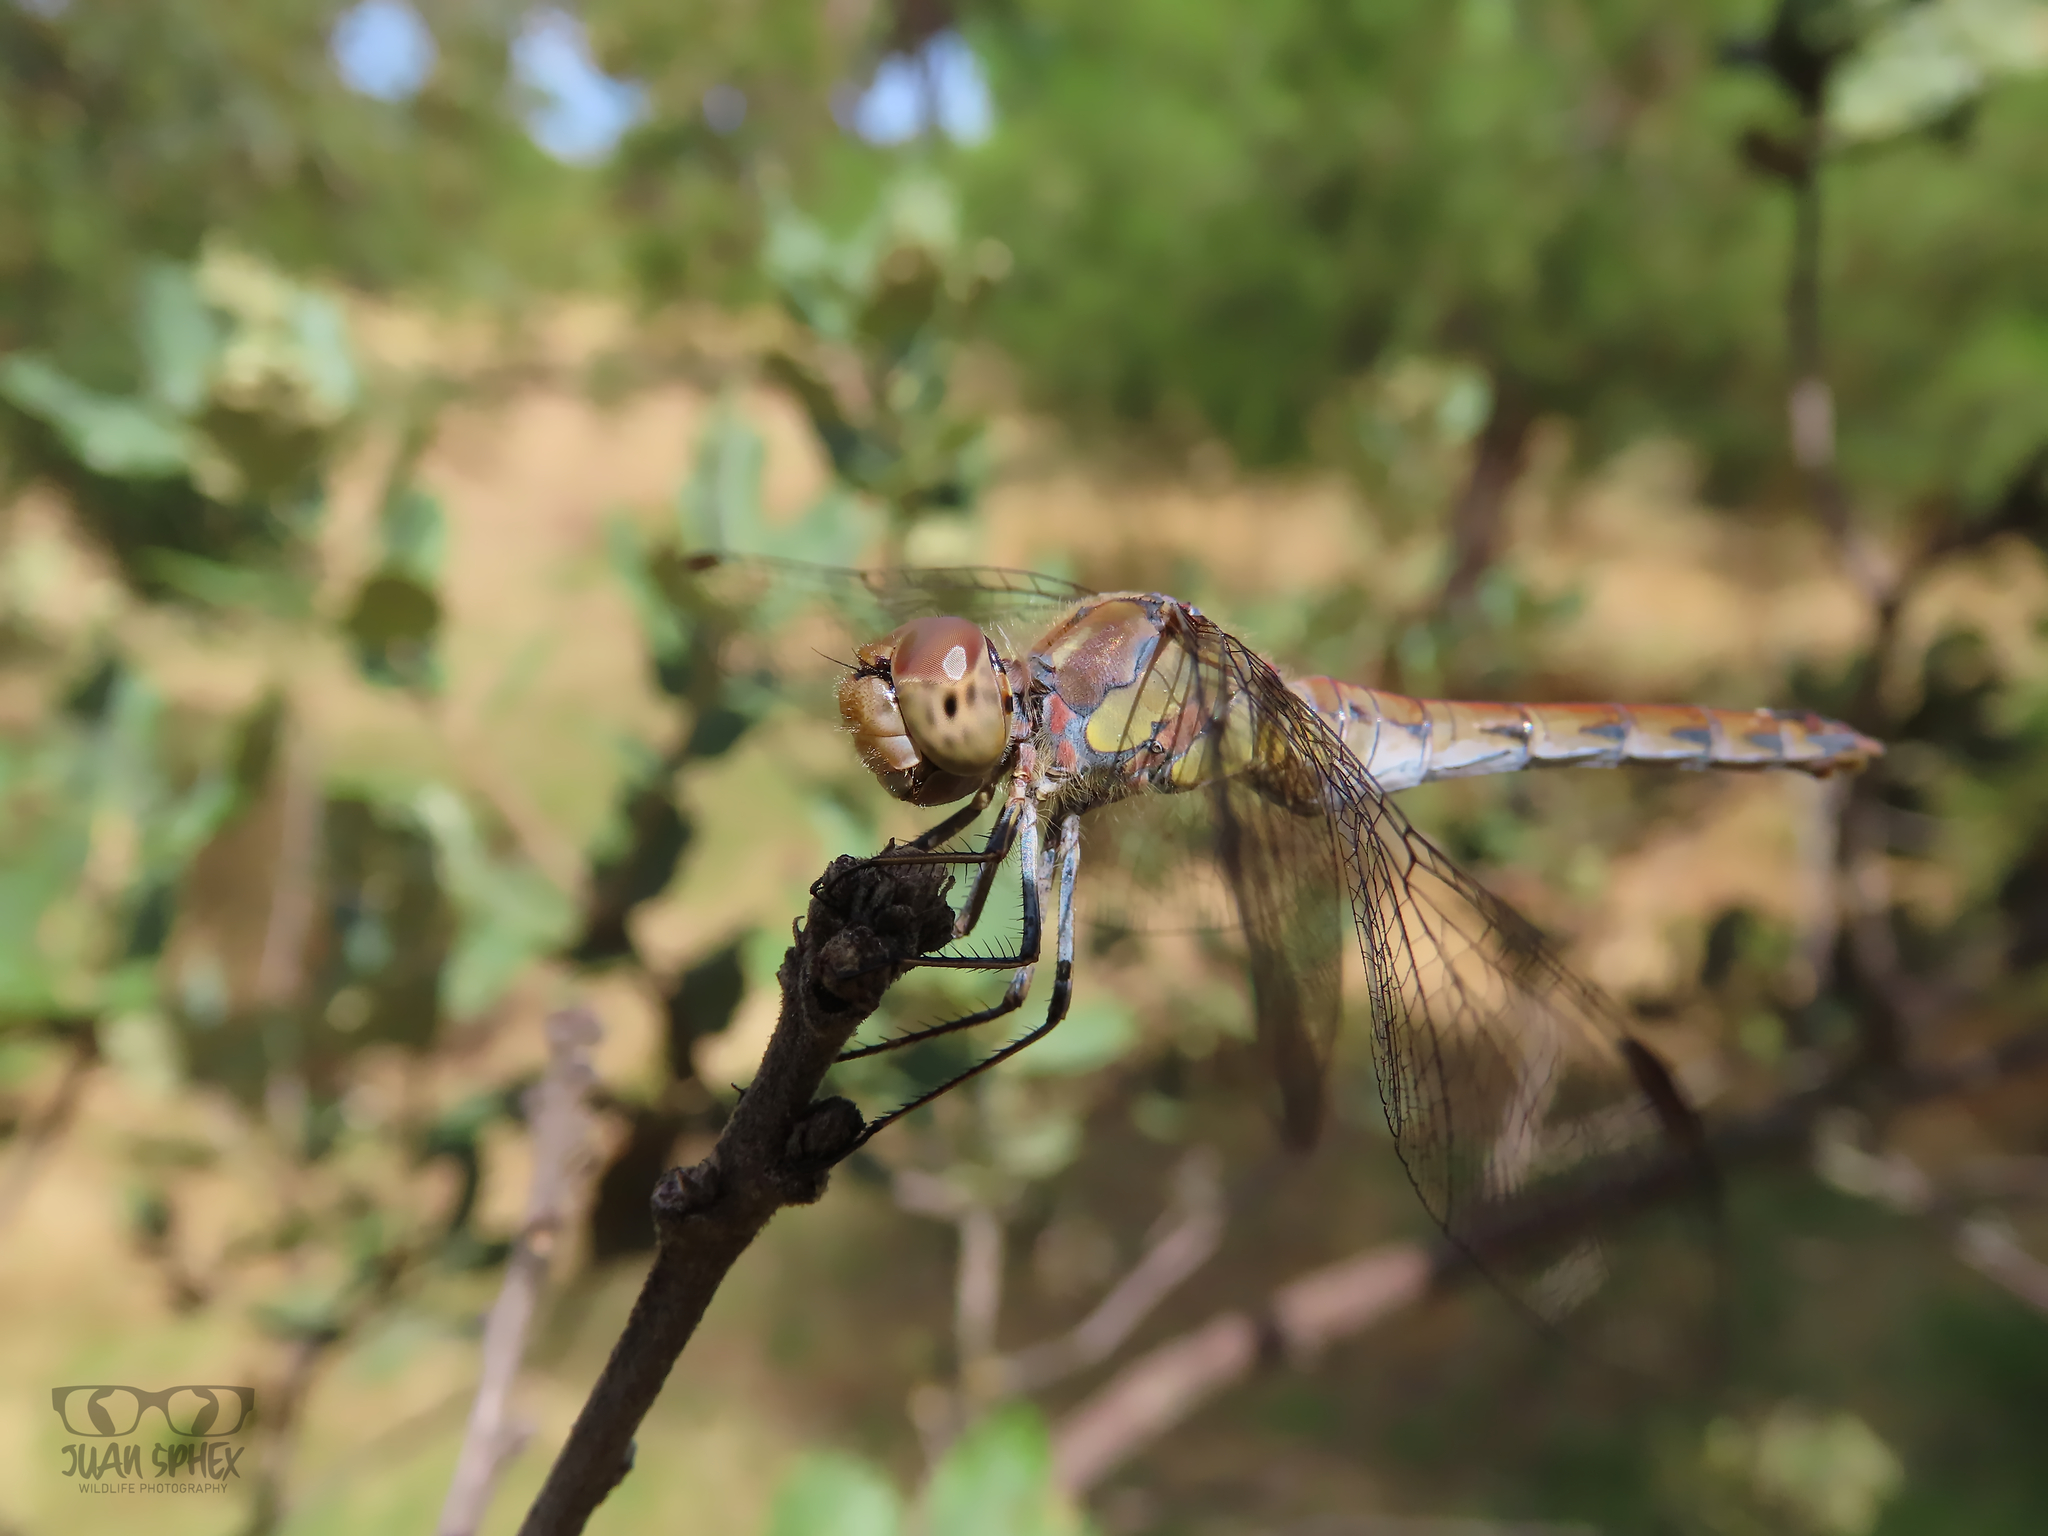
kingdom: Animalia
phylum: Arthropoda
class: Insecta
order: Odonata
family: Libellulidae
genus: Sympetrum
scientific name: Sympetrum striolatum
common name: Common darter
